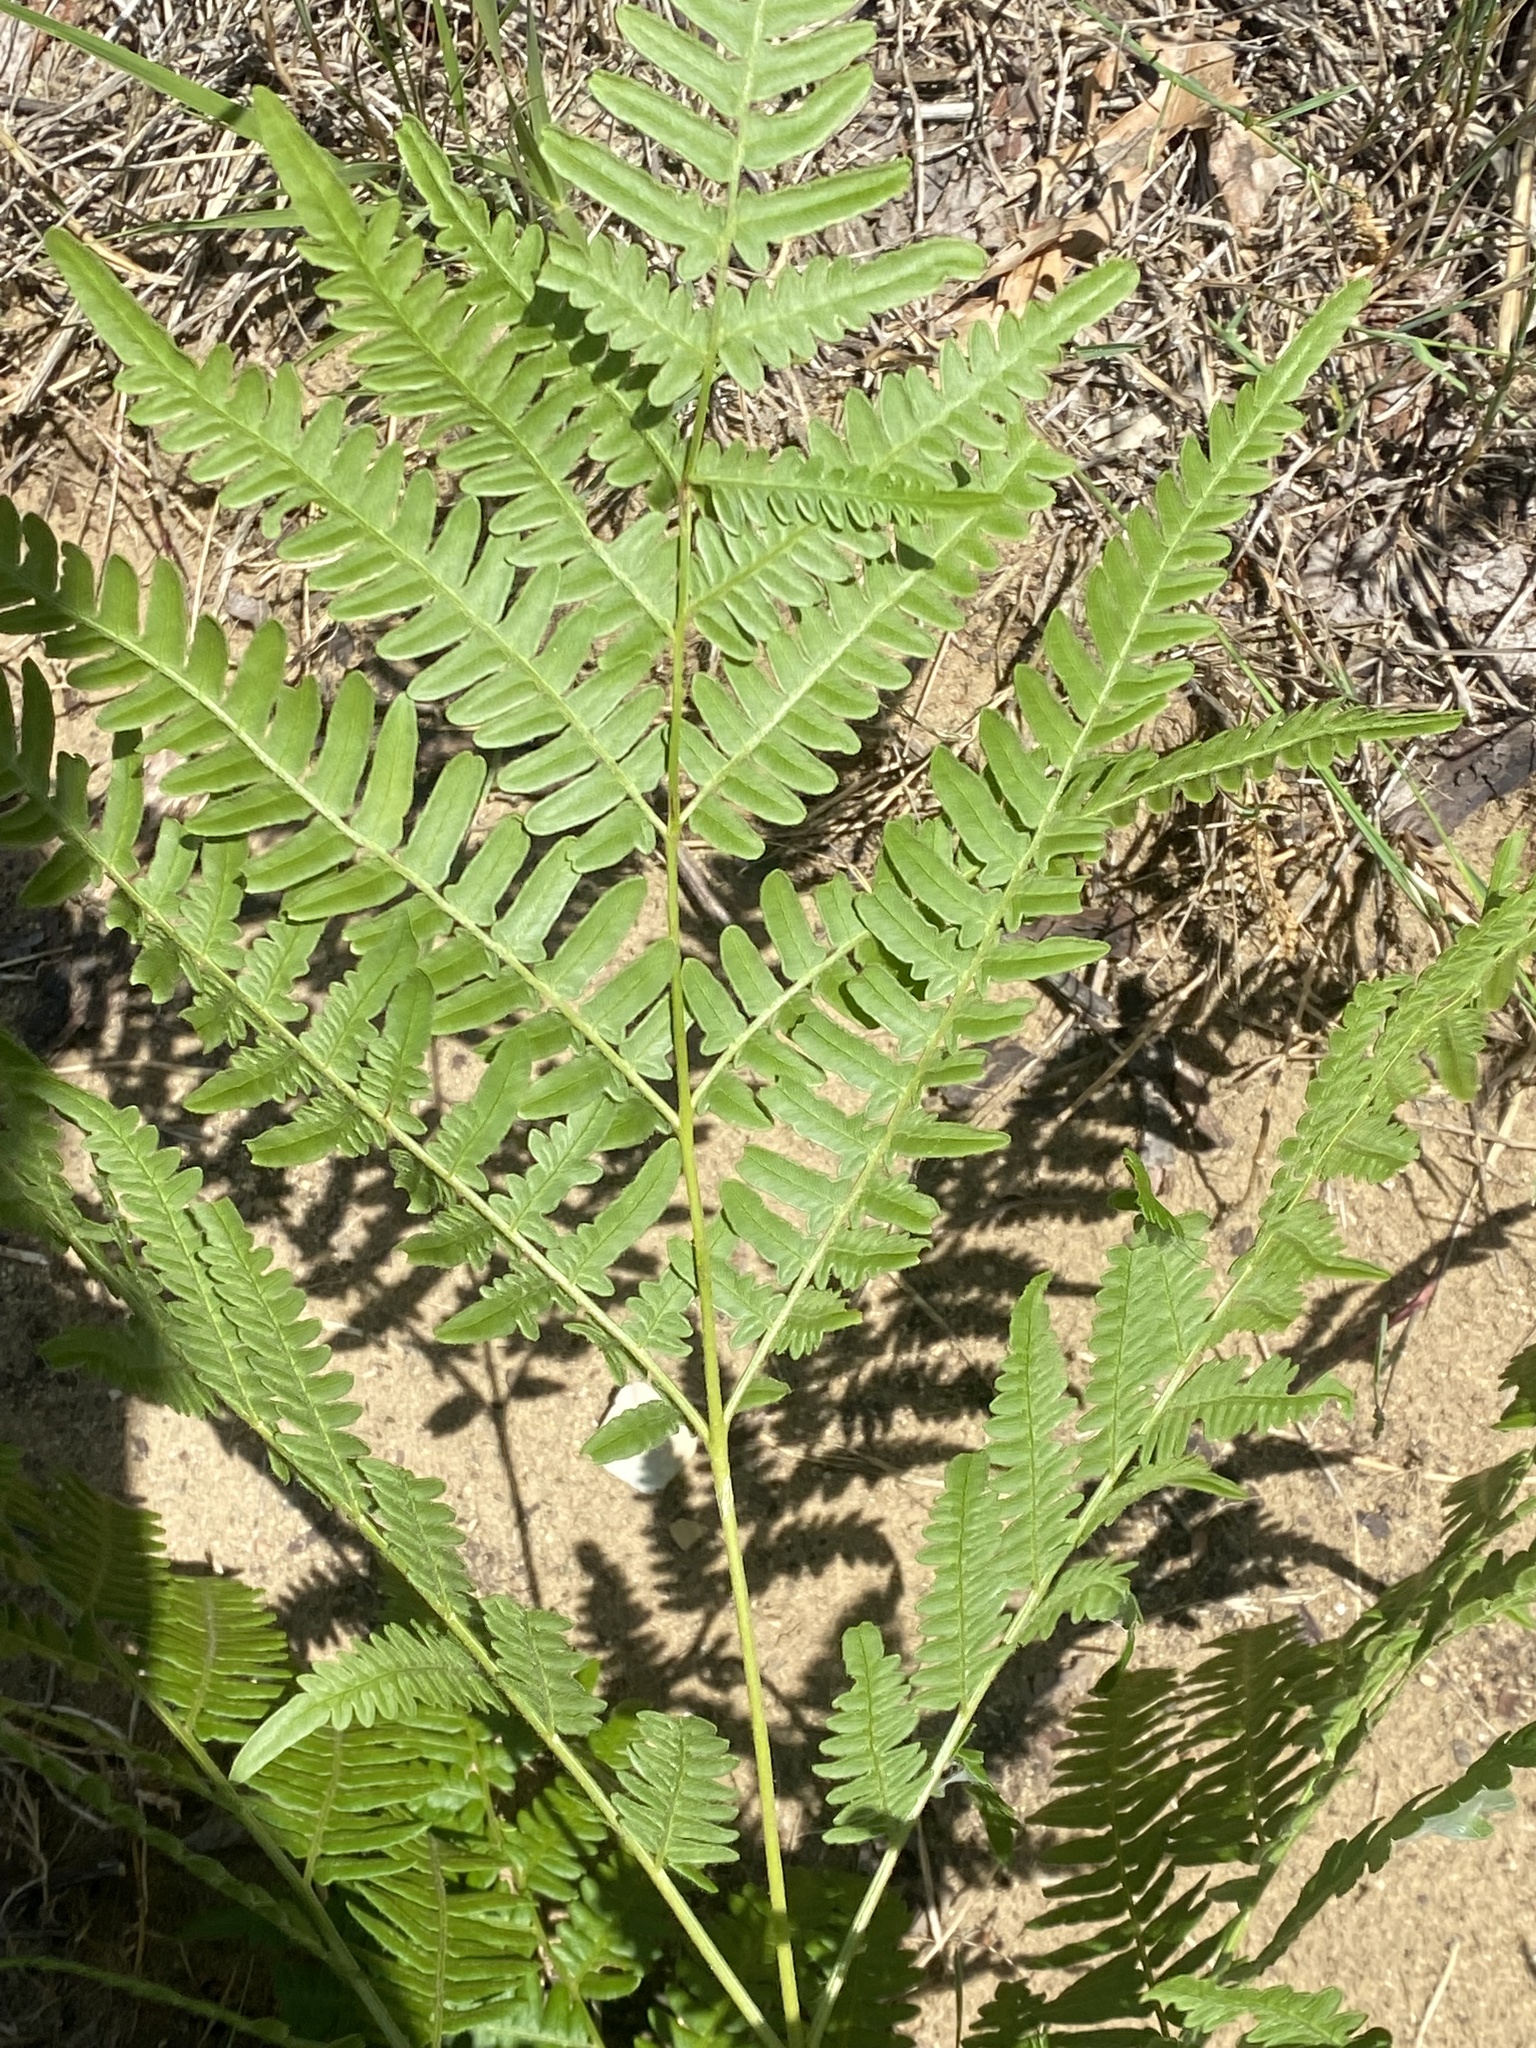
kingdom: Plantae
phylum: Tracheophyta
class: Polypodiopsida
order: Polypodiales
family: Dennstaedtiaceae
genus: Pteridium
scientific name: Pteridium aquilinum
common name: Bracken
